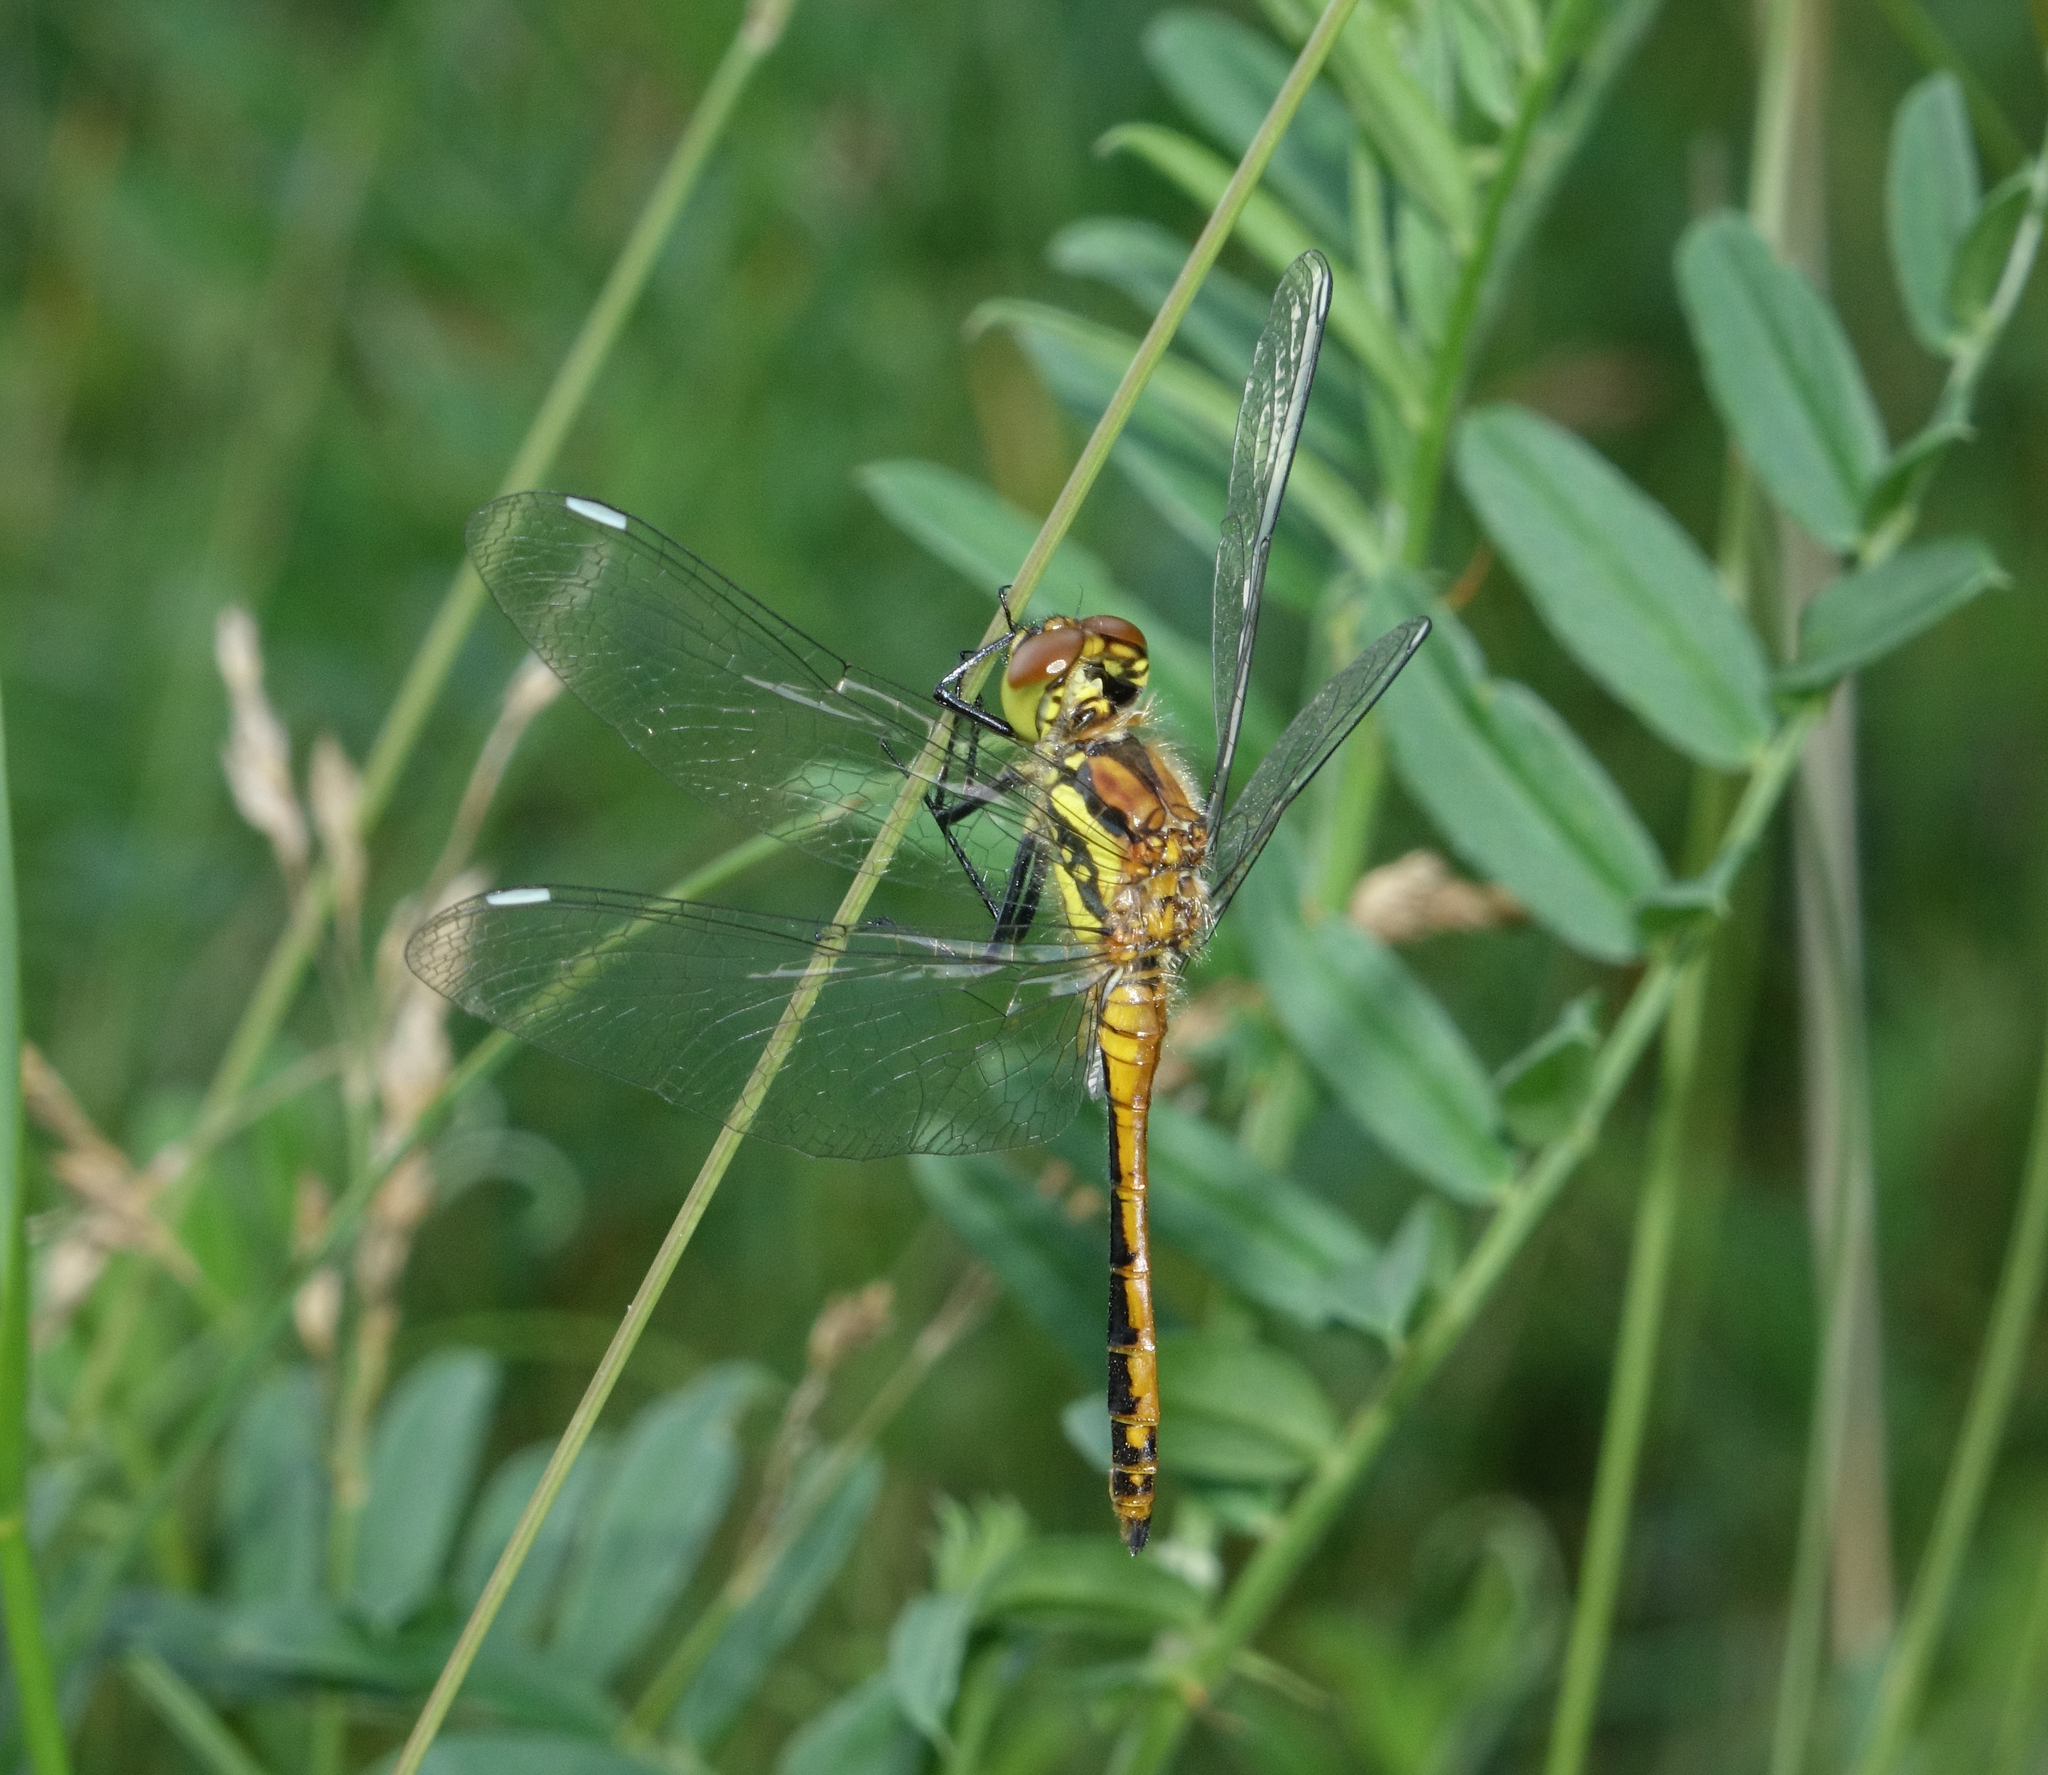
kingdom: Animalia
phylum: Arthropoda
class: Insecta
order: Odonata
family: Libellulidae
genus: Sympetrum
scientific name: Sympetrum danae
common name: Black darter
